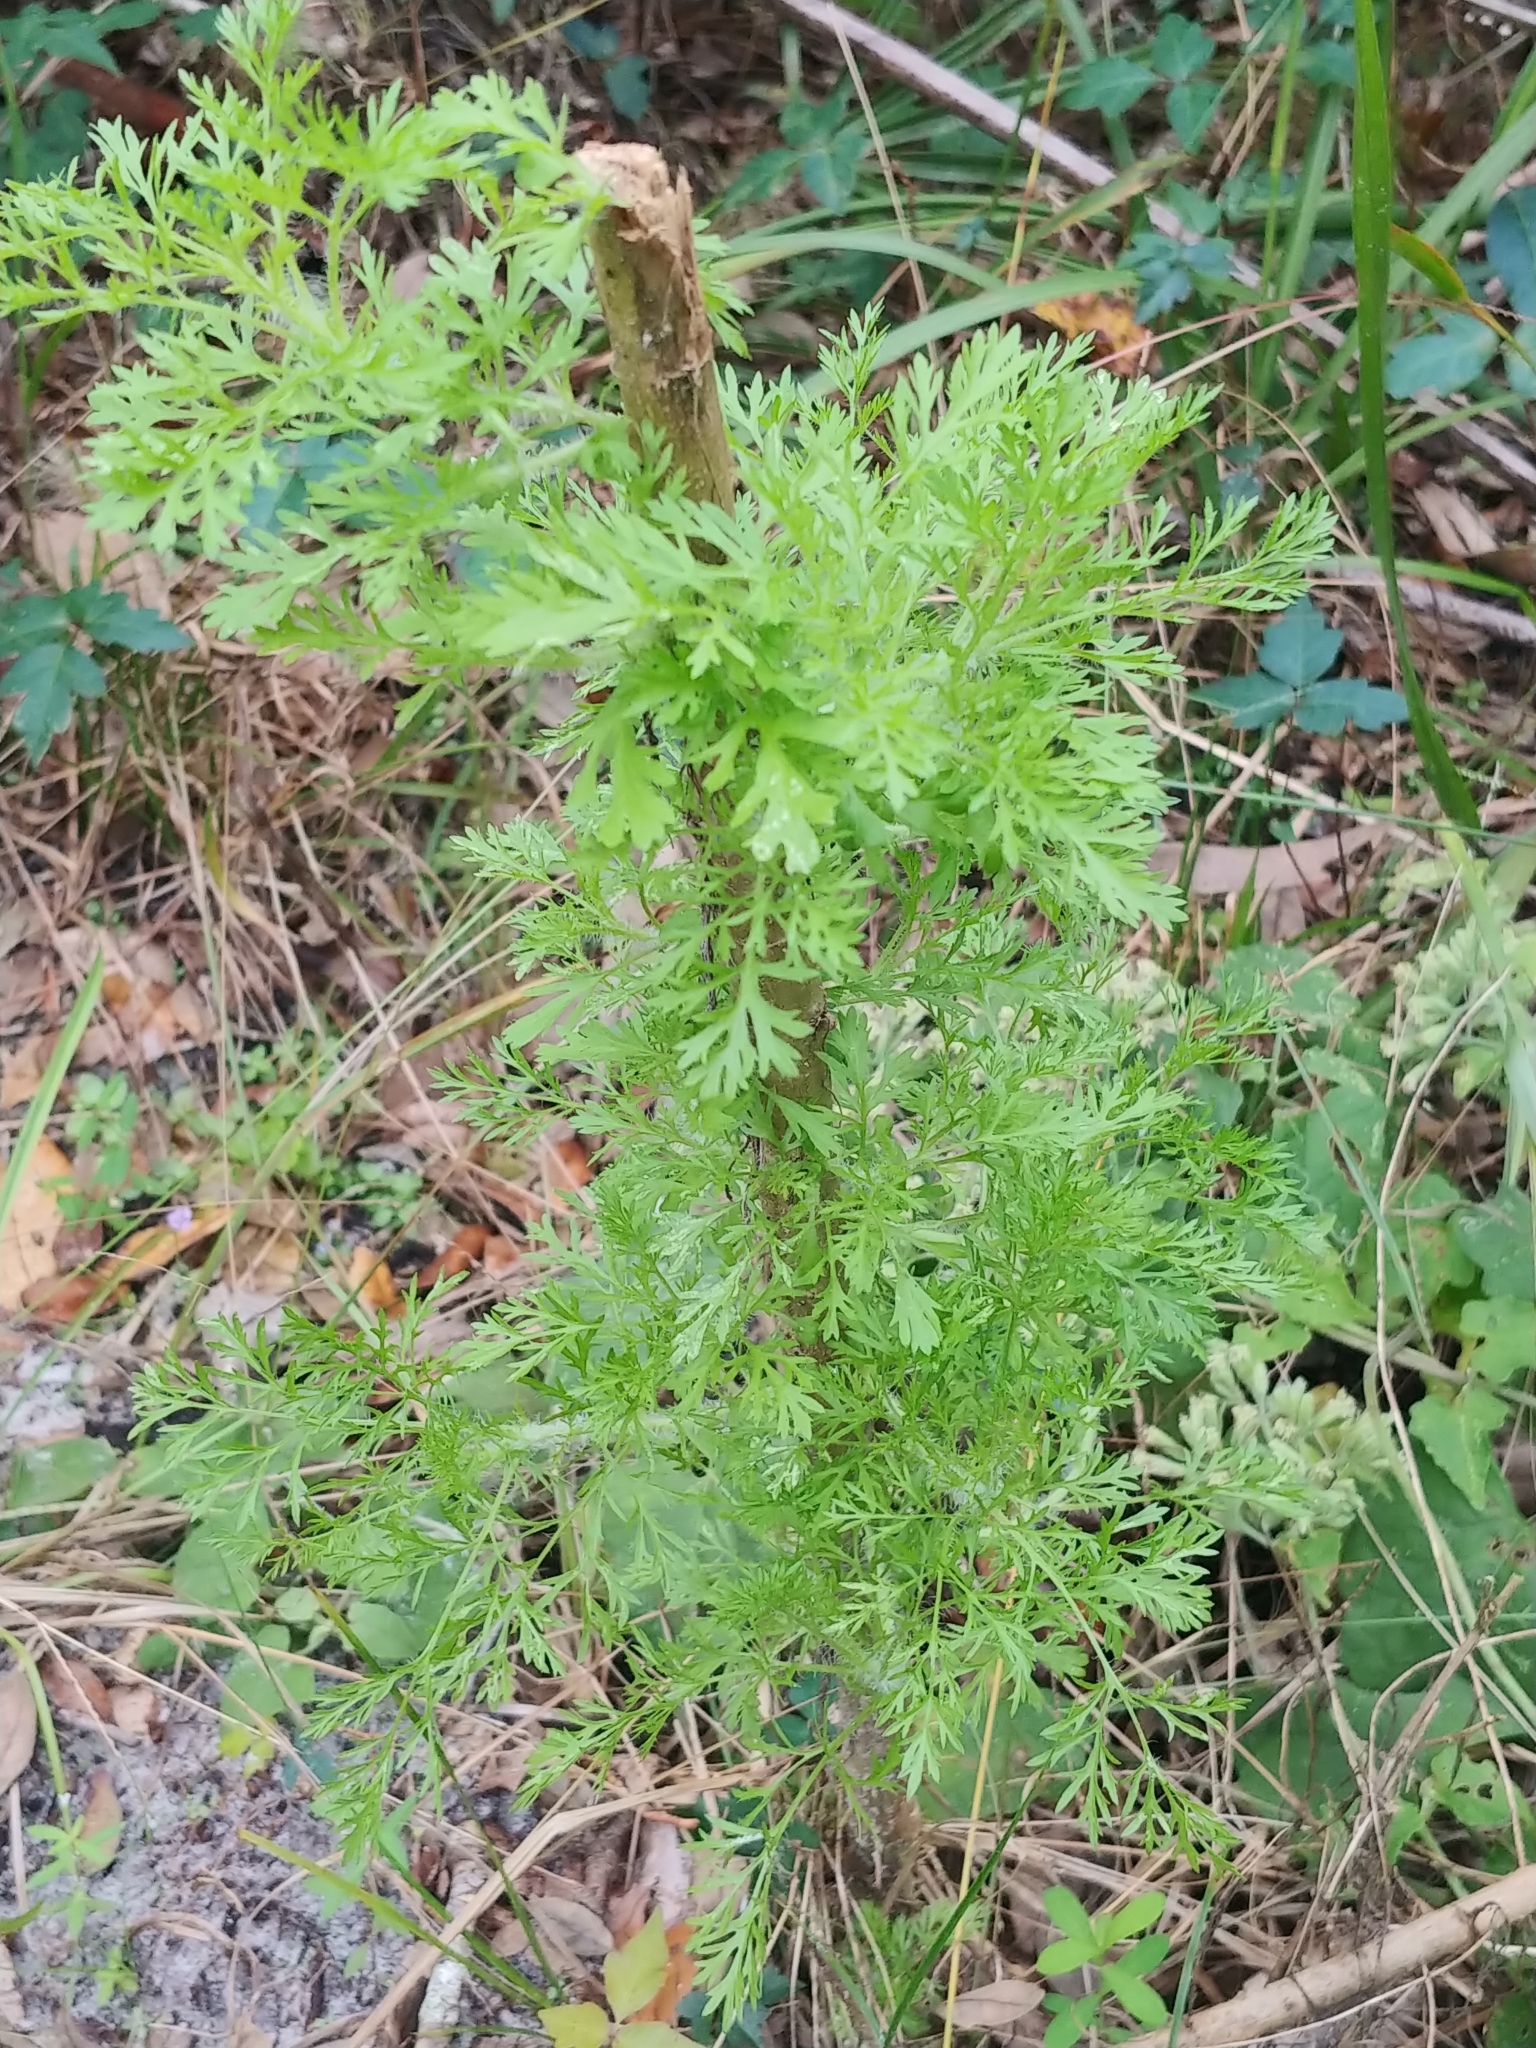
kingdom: Plantae
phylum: Tracheophyta
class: Magnoliopsida
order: Asterales
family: Asteraceae
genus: Eupatorium
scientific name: Eupatorium capillifolium
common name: Dog-fennel
